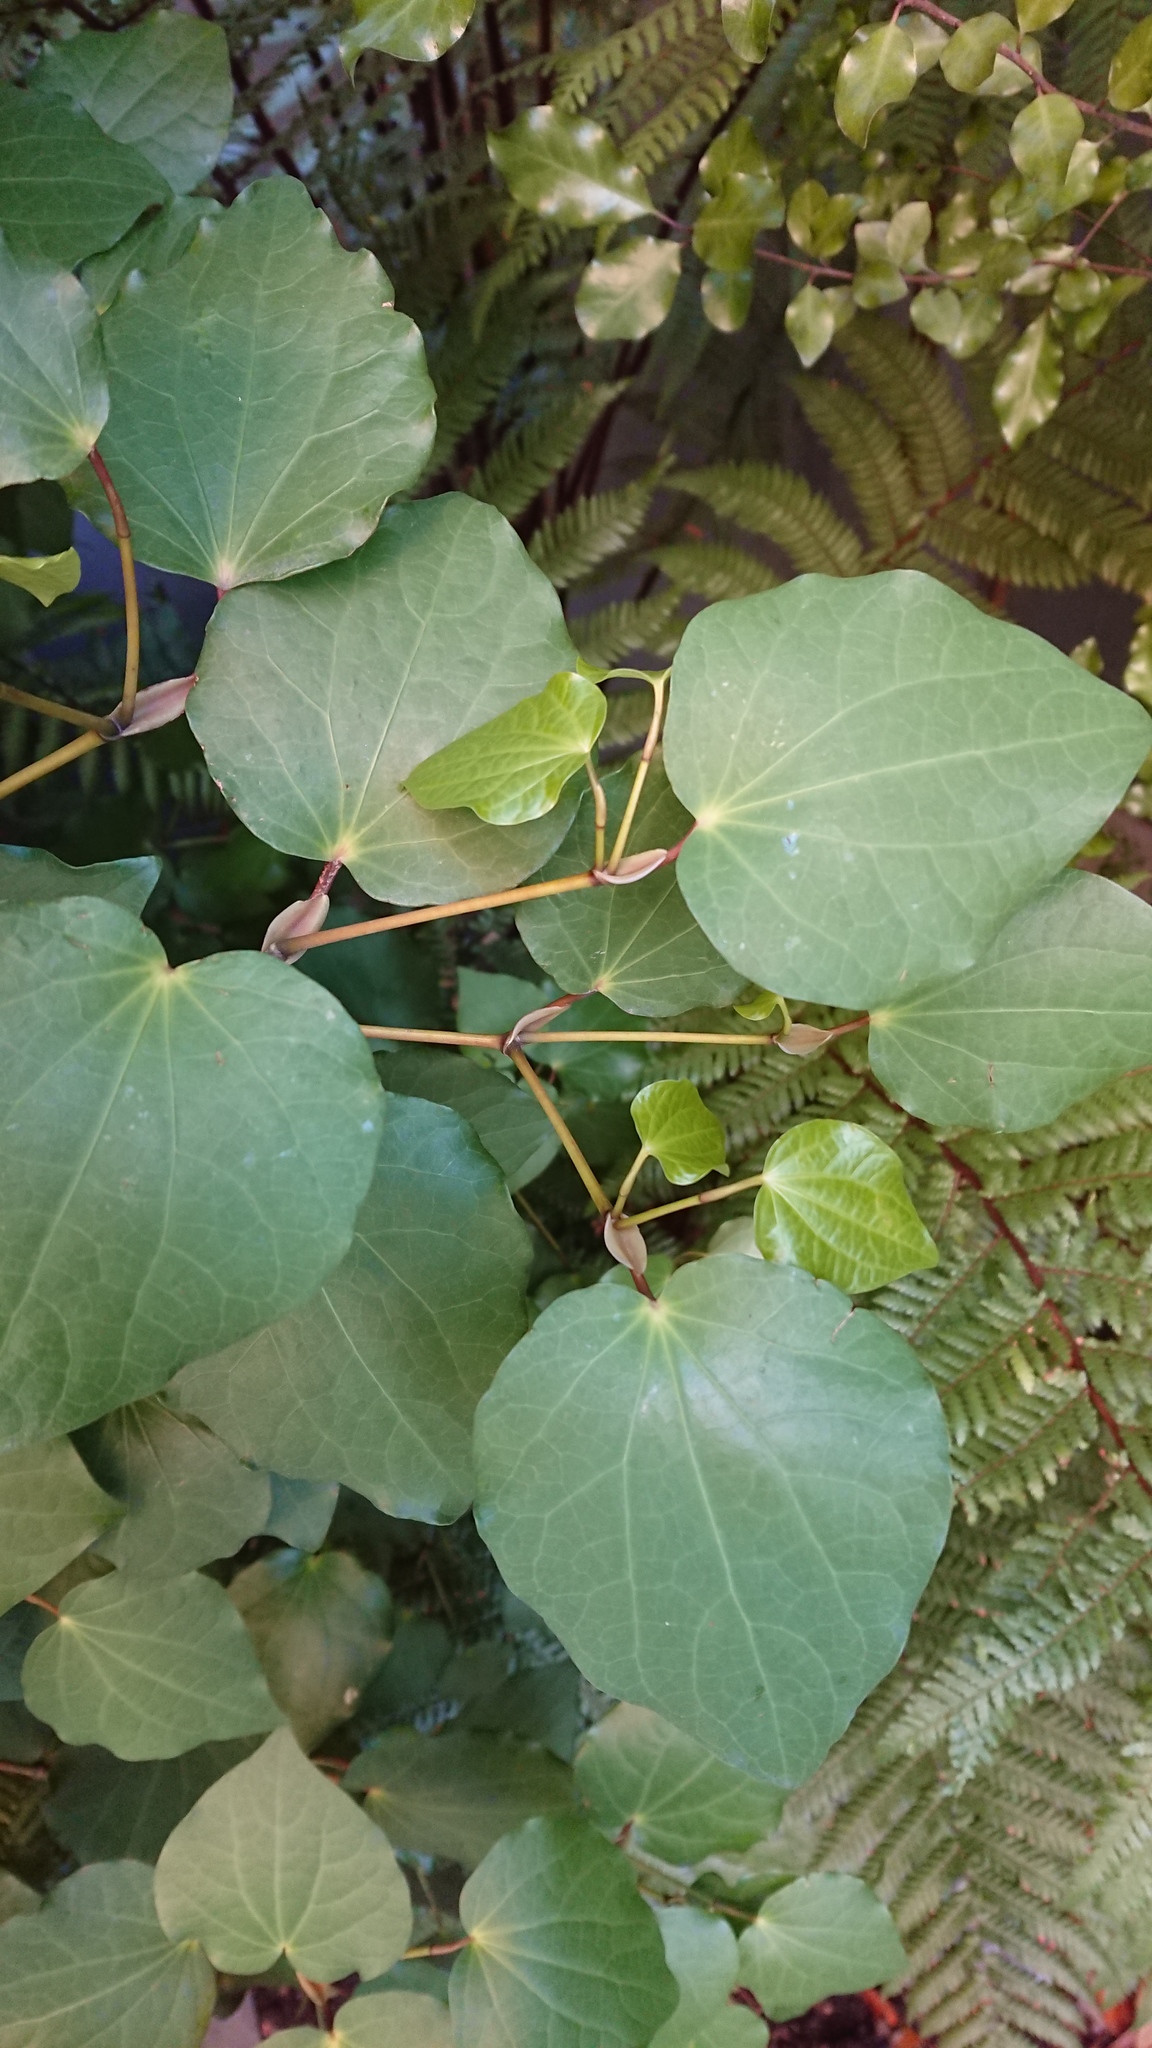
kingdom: Plantae
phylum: Tracheophyta
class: Magnoliopsida
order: Piperales
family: Piperaceae
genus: Macropiper
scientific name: Macropiper excelsum
